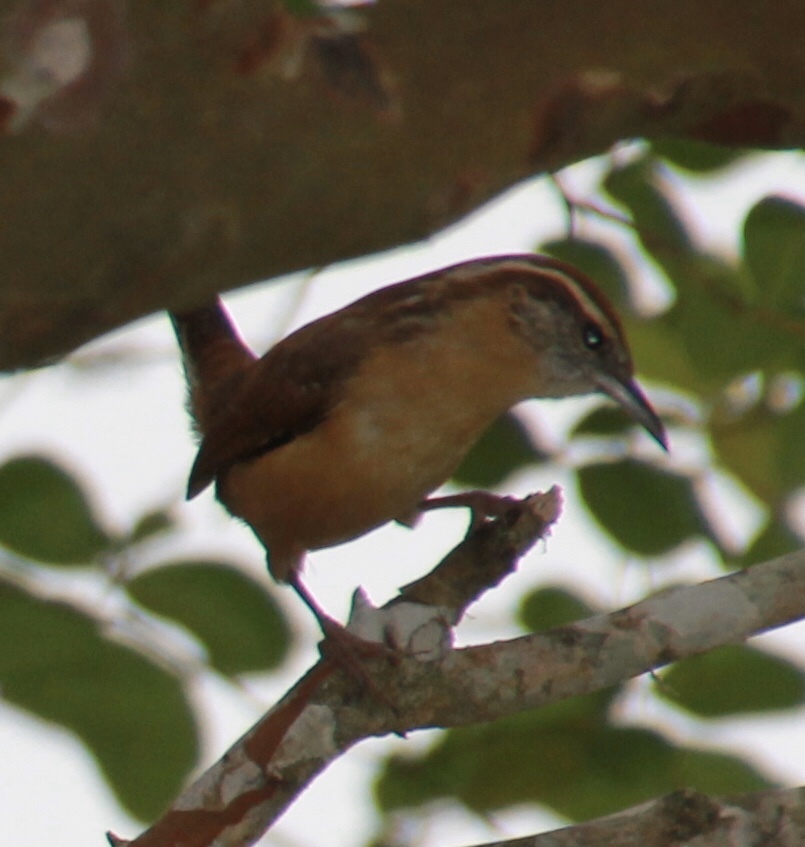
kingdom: Animalia
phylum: Chordata
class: Aves
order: Passeriformes
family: Troglodytidae
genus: Thryothorus
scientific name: Thryothorus ludovicianus
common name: Carolina wren
